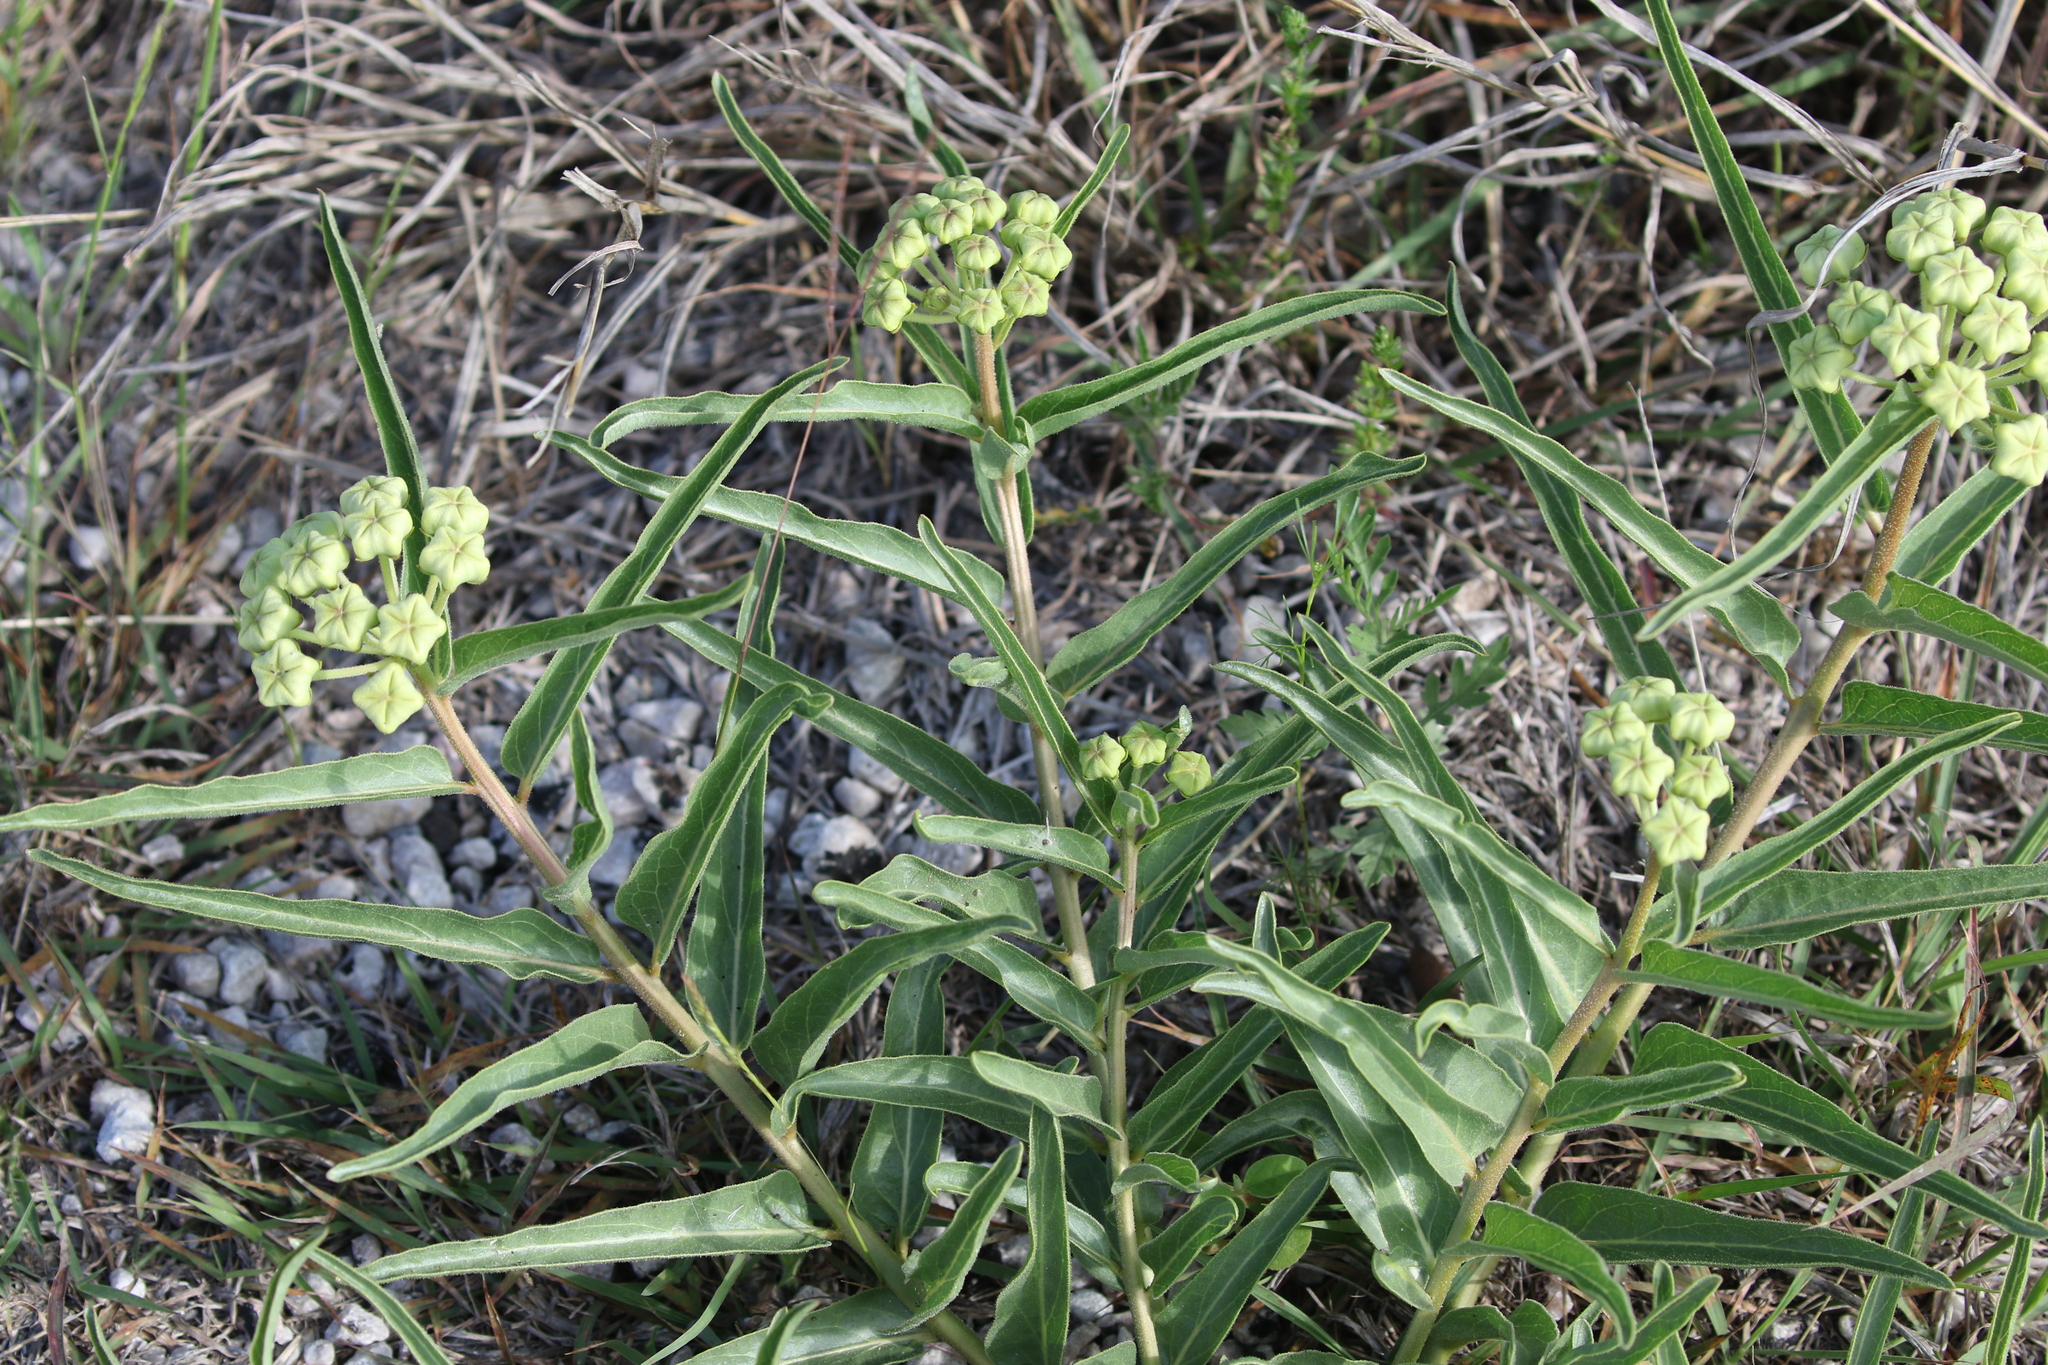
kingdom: Plantae
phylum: Tracheophyta
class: Magnoliopsida
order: Gentianales
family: Apocynaceae
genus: Asclepias
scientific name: Asclepias asperula
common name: Antelope horns
